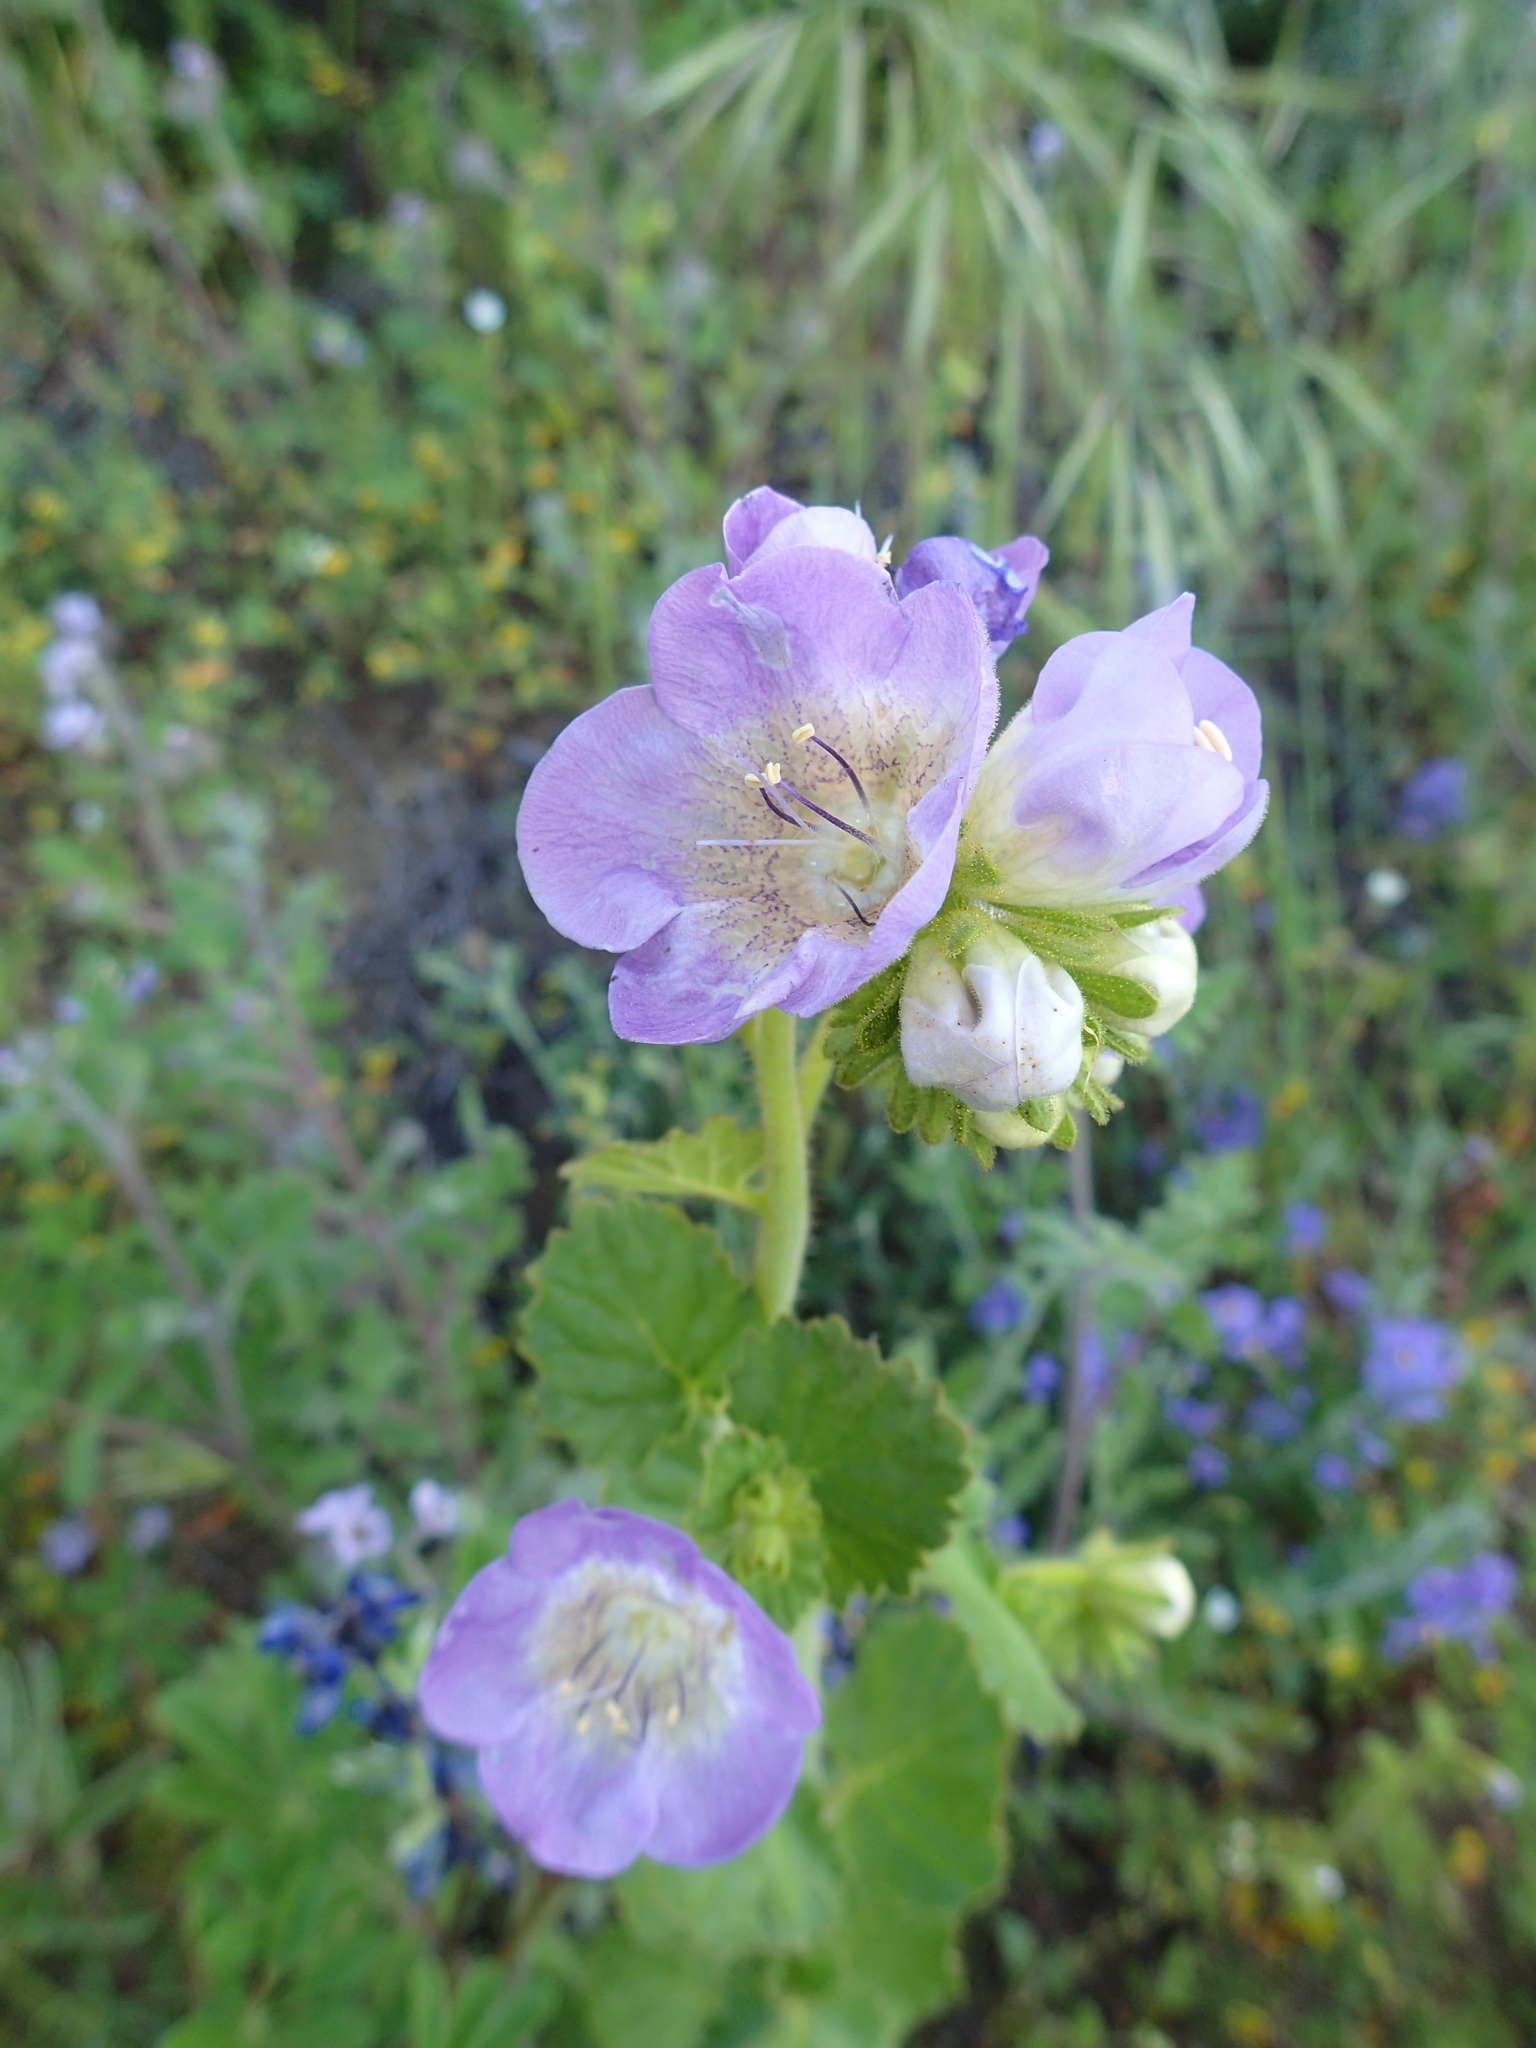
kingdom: Plantae
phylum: Tracheophyta
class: Magnoliopsida
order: Boraginales
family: Hydrophyllaceae
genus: Phacelia
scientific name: Phacelia grandiflora
